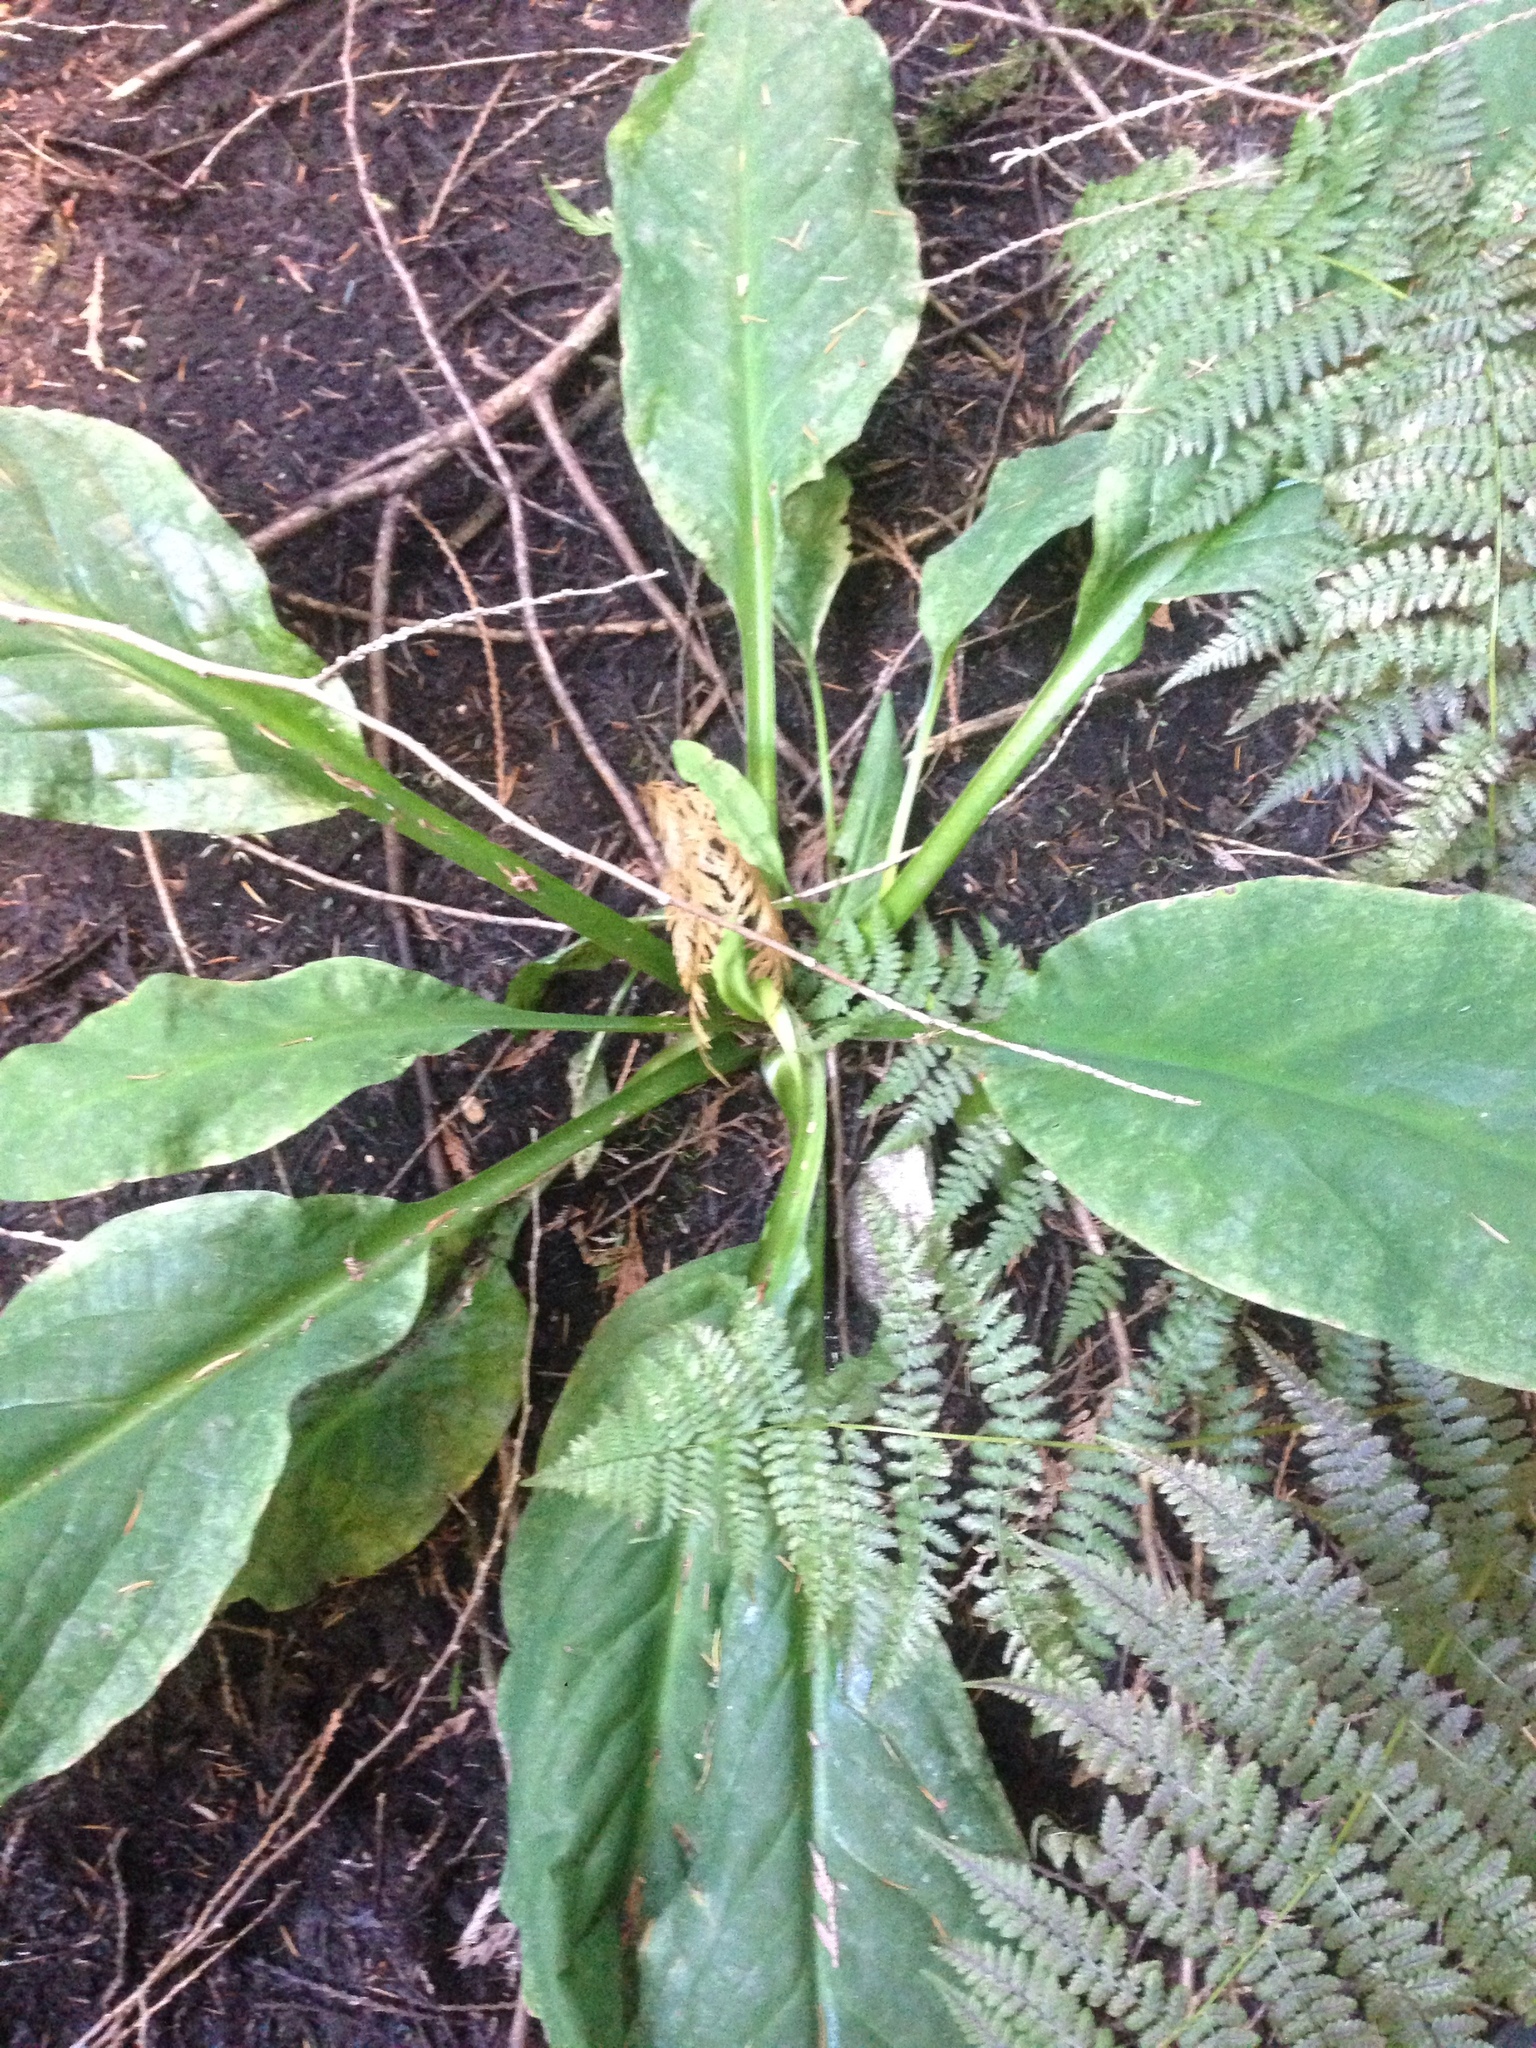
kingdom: Plantae
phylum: Tracheophyta
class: Liliopsida
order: Alismatales
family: Araceae
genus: Lysichiton
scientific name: Lysichiton americanus
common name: American skunk cabbage
